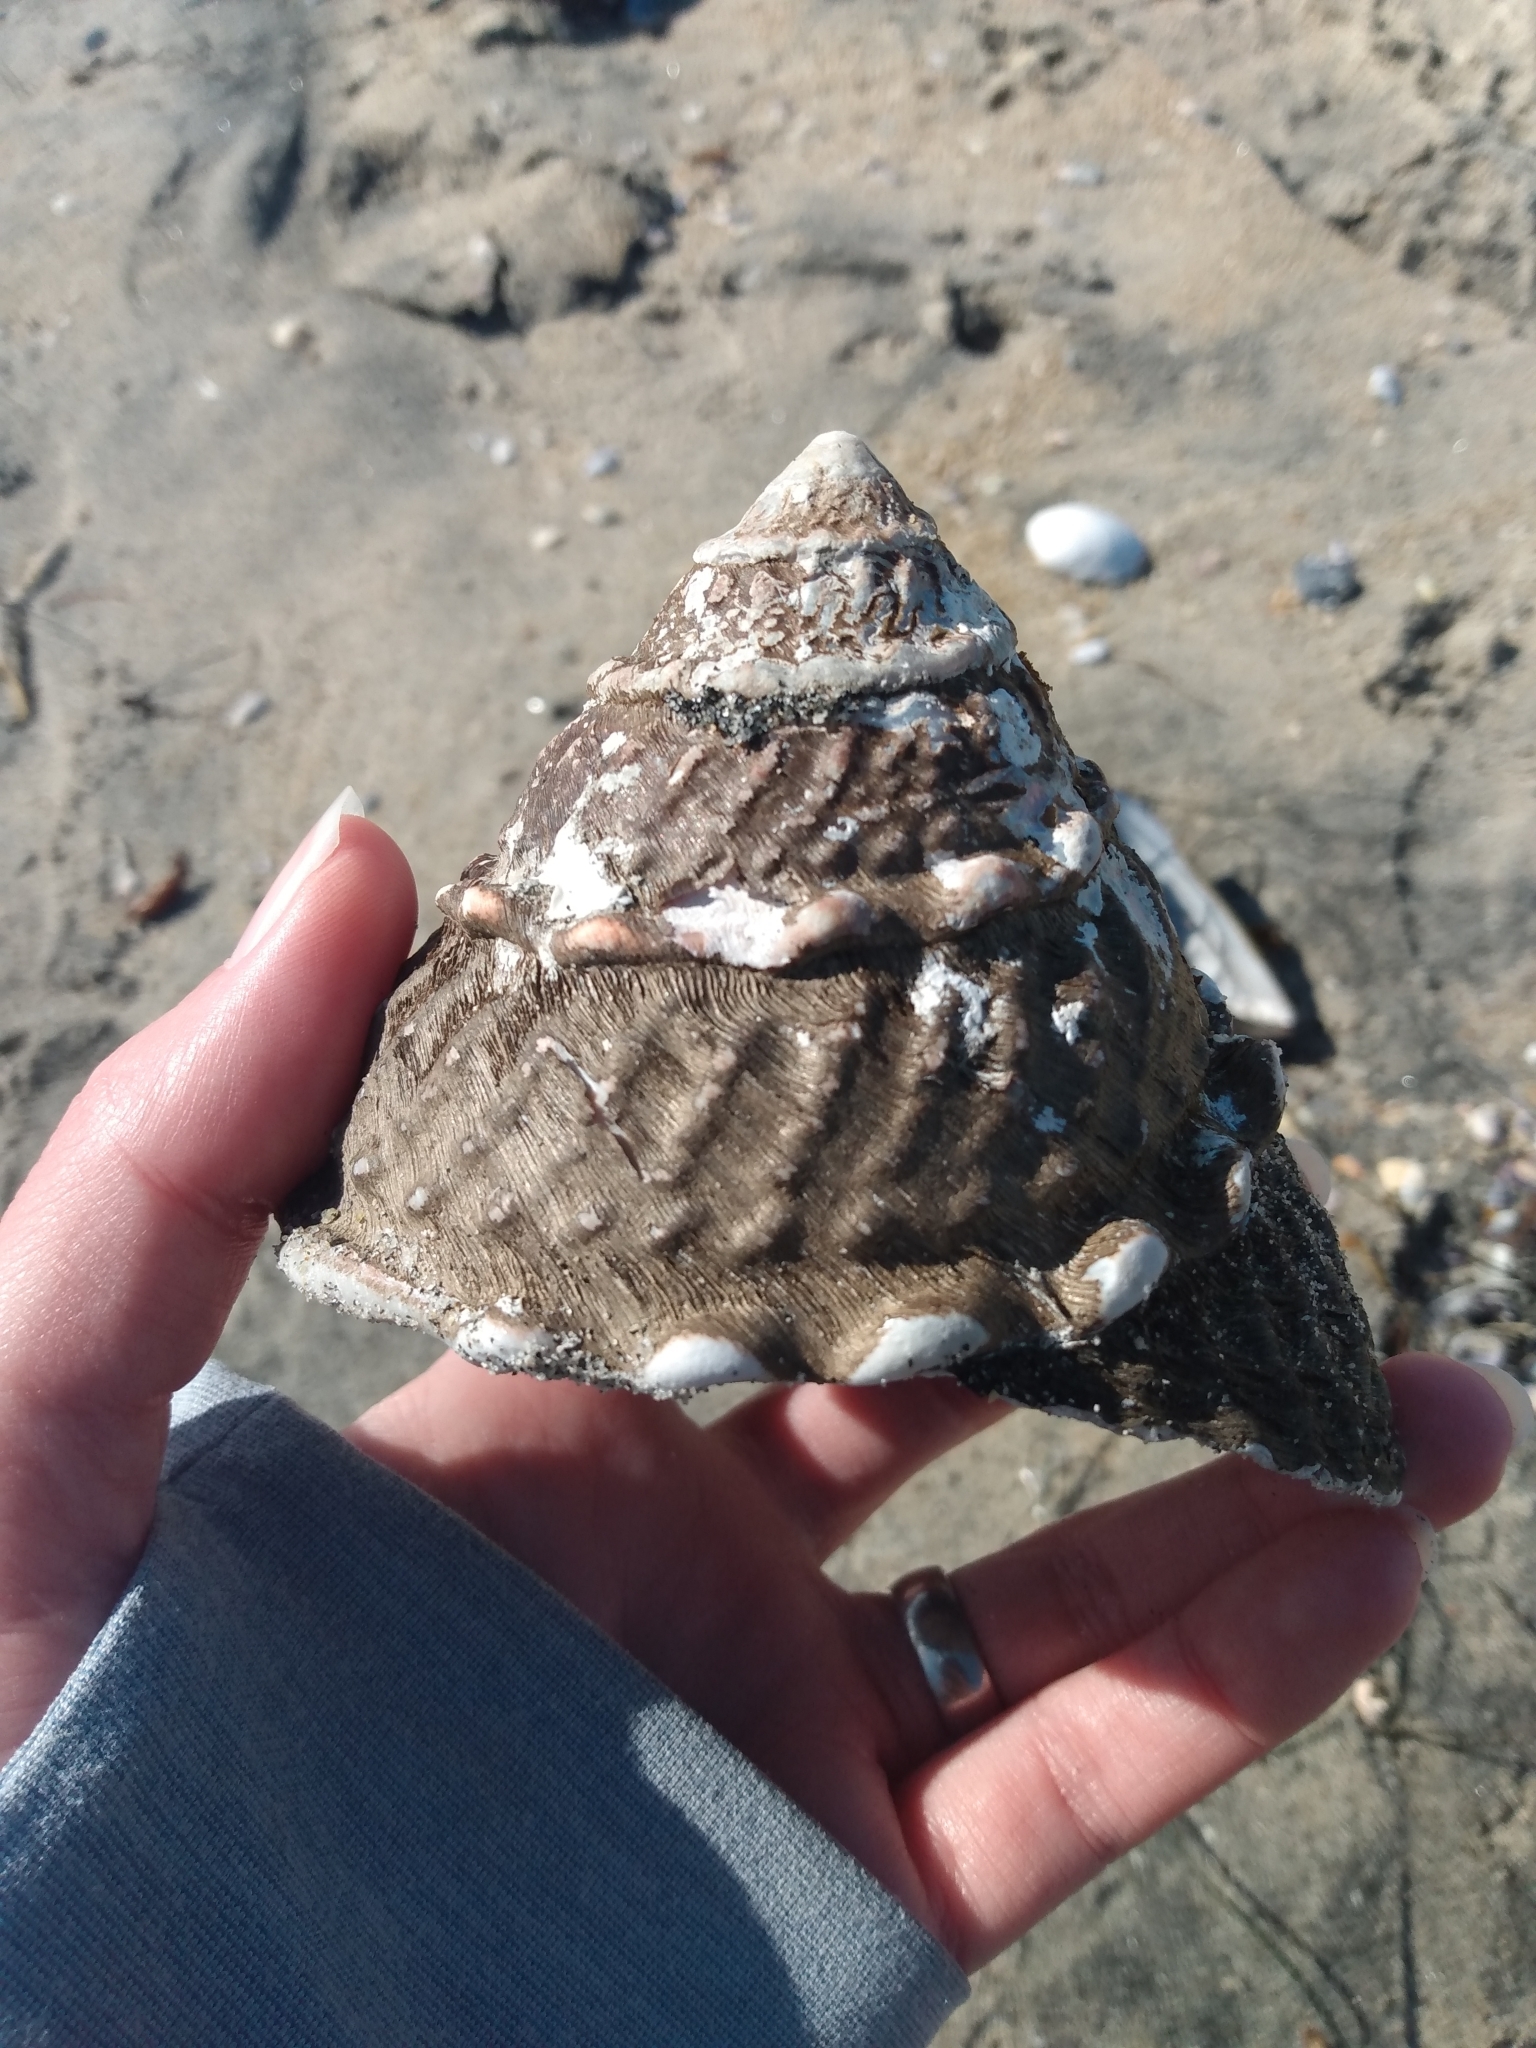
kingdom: Animalia
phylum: Mollusca
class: Gastropoda
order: Trochida
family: Turbinidae
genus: Megastraea
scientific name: Megastraea undosa
